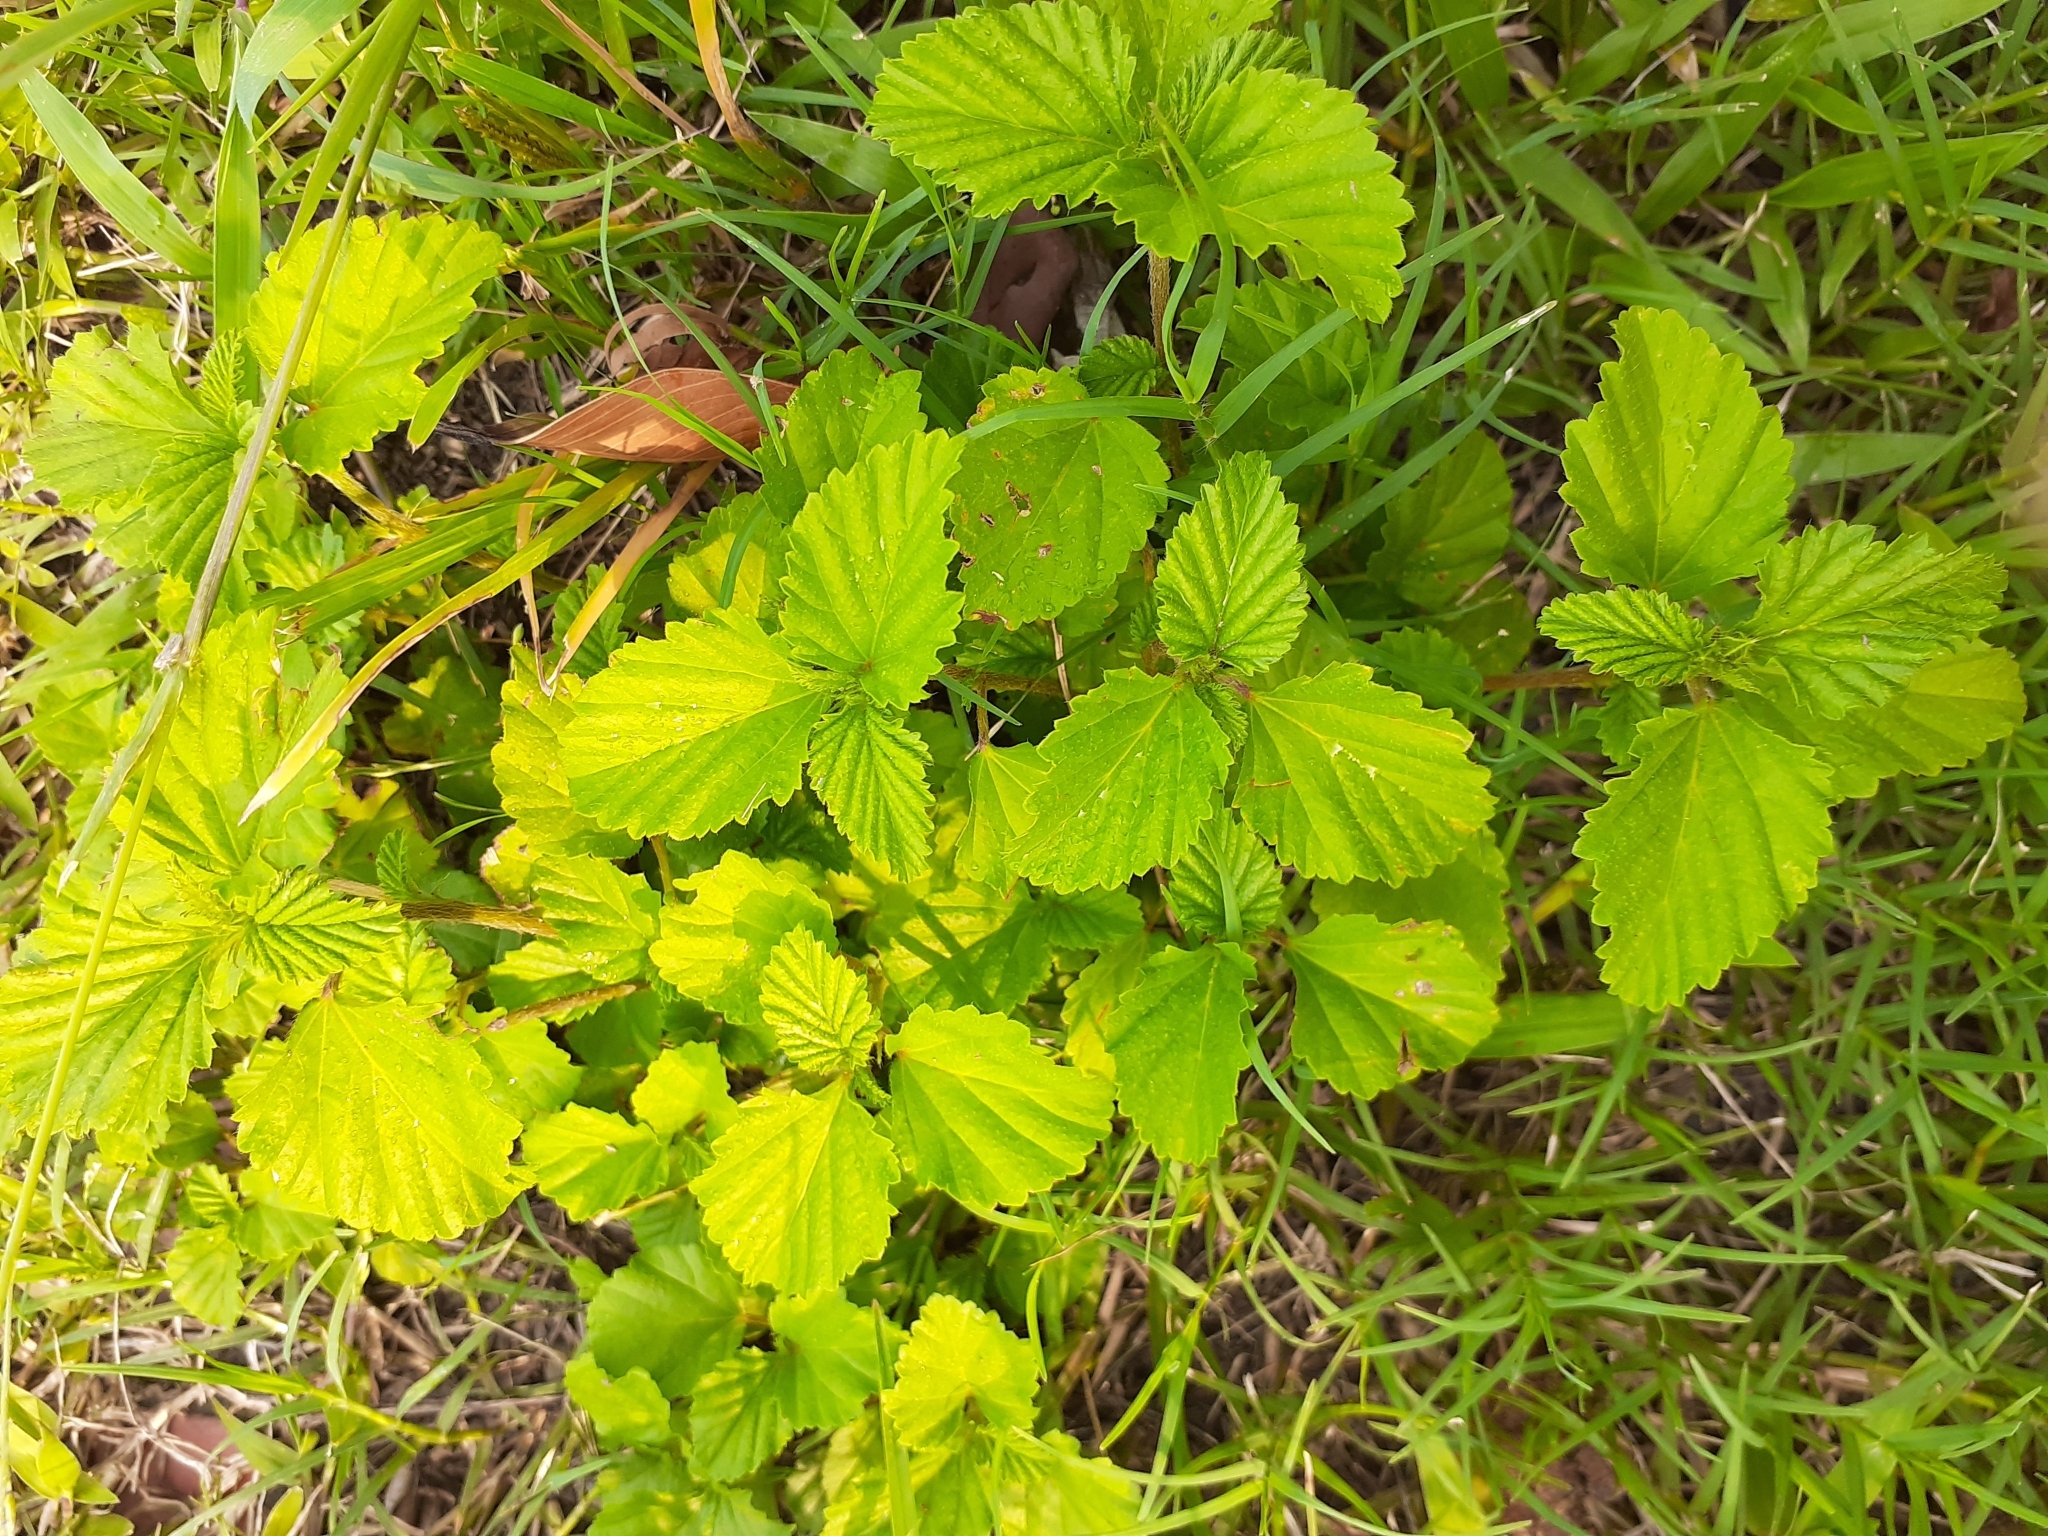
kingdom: Plantae
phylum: Tracheophyta
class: Magnoliopsida
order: Malvales
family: Malvaceae
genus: Malvastrum
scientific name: Malvastrum coromandelianum
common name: Threelobe false mallow
